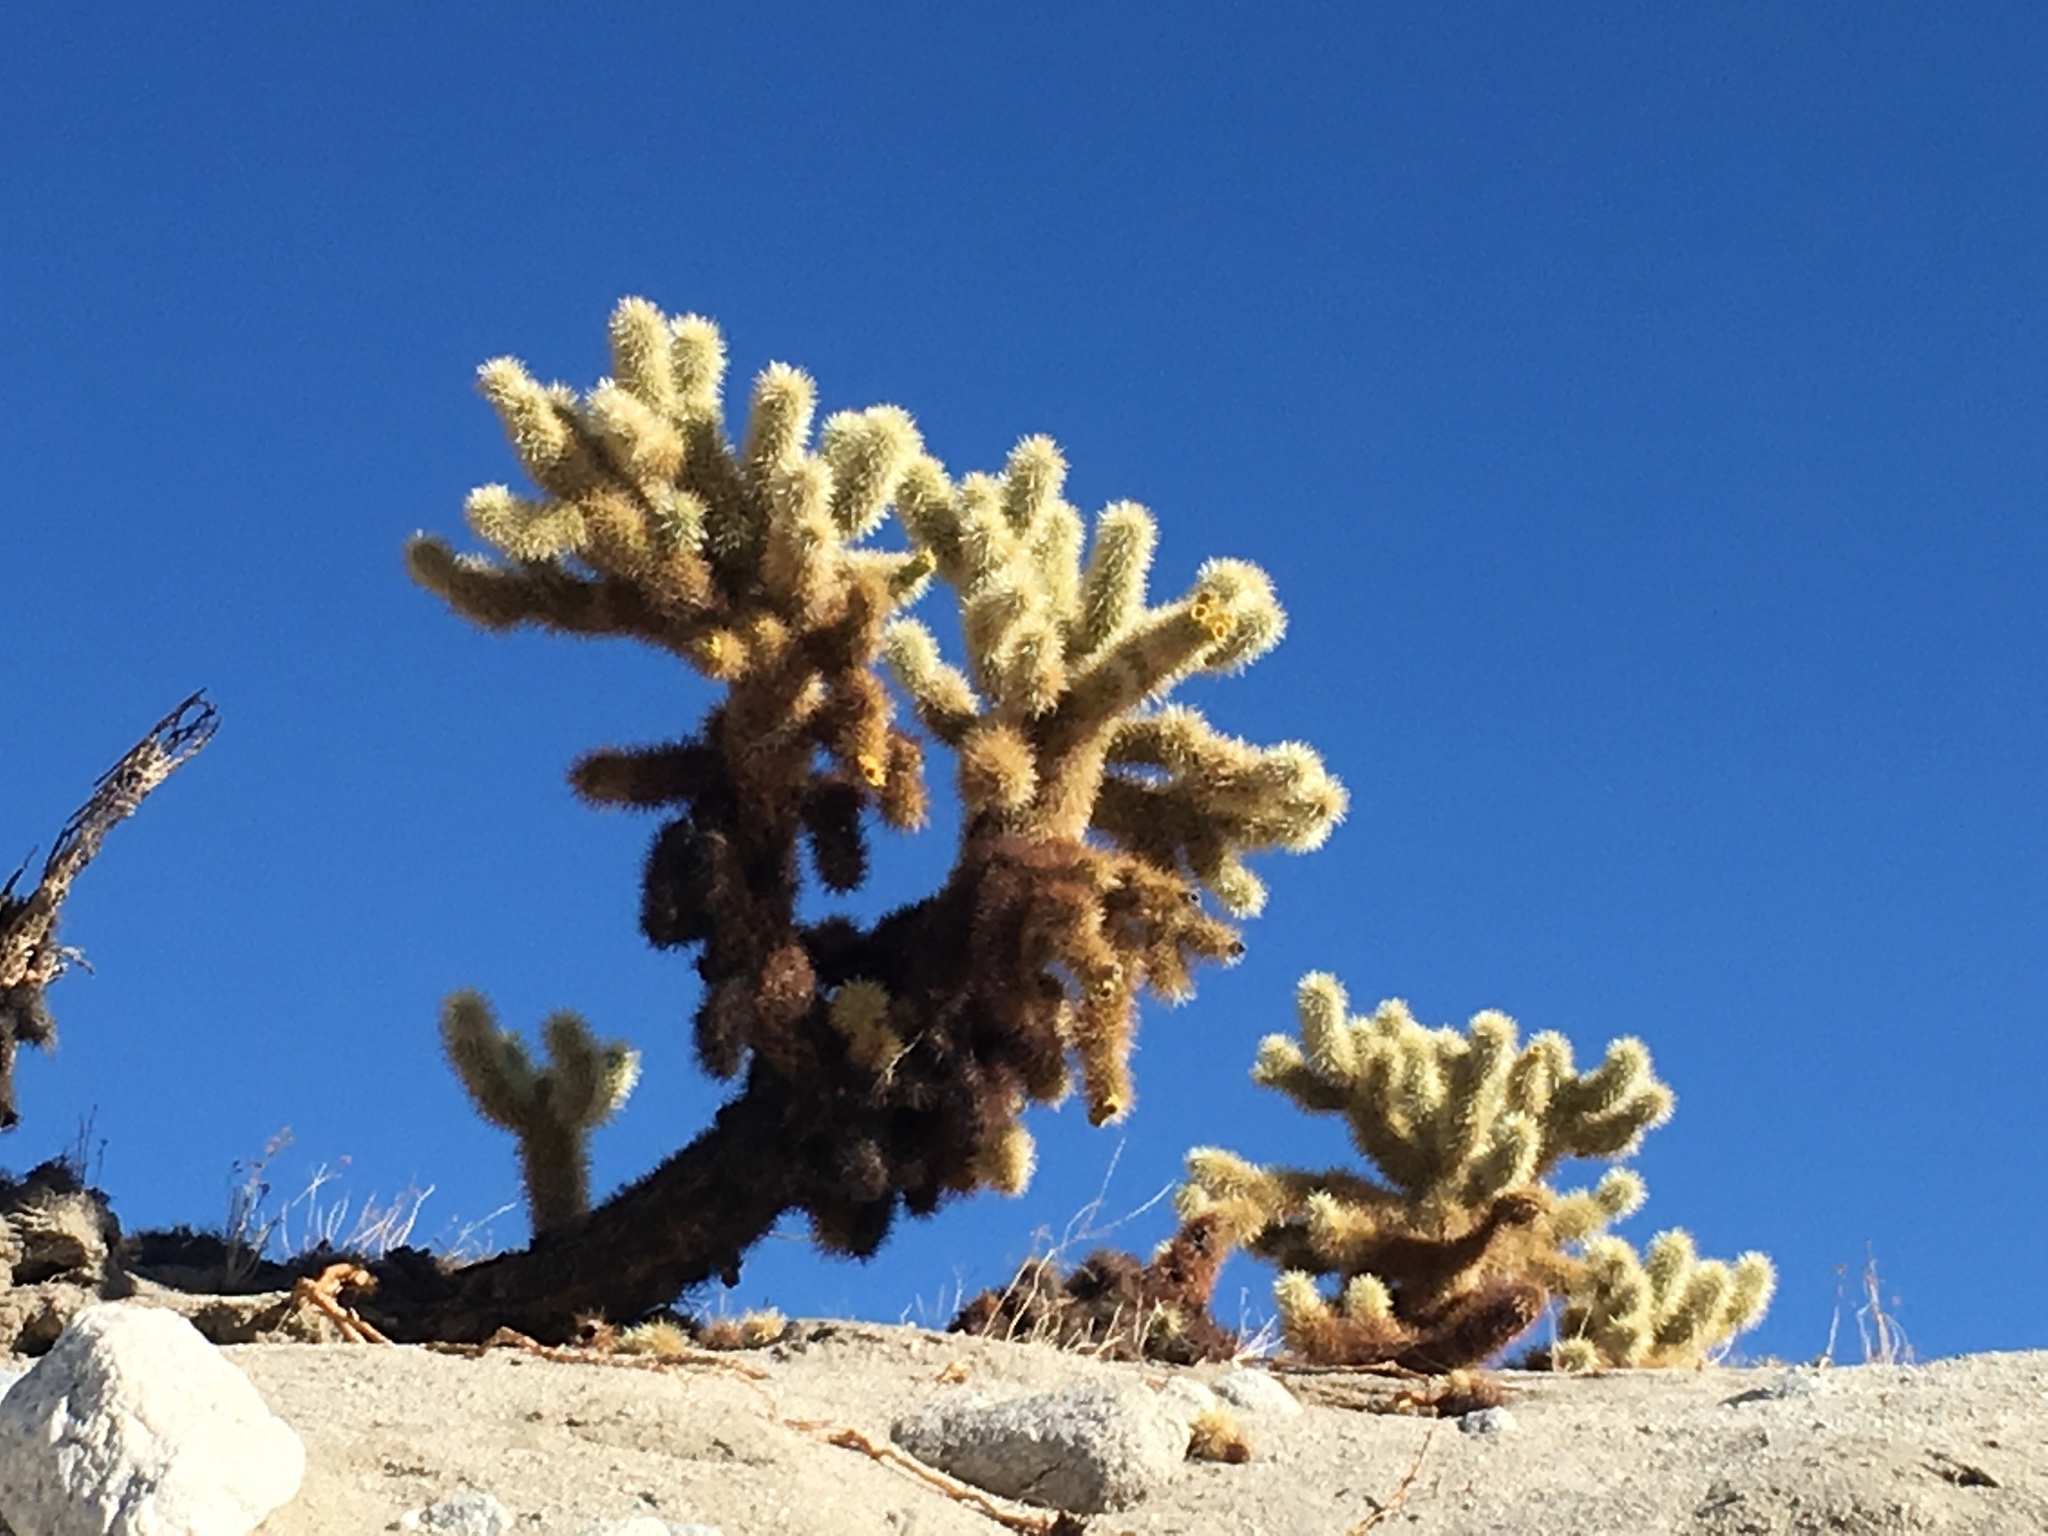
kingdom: Plantae
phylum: Tracheophyta
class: Magnoliopsida
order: Caryophyllales
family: Cactaceae
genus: Cylindropuntia
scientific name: Cylindropuntia fosbergii
